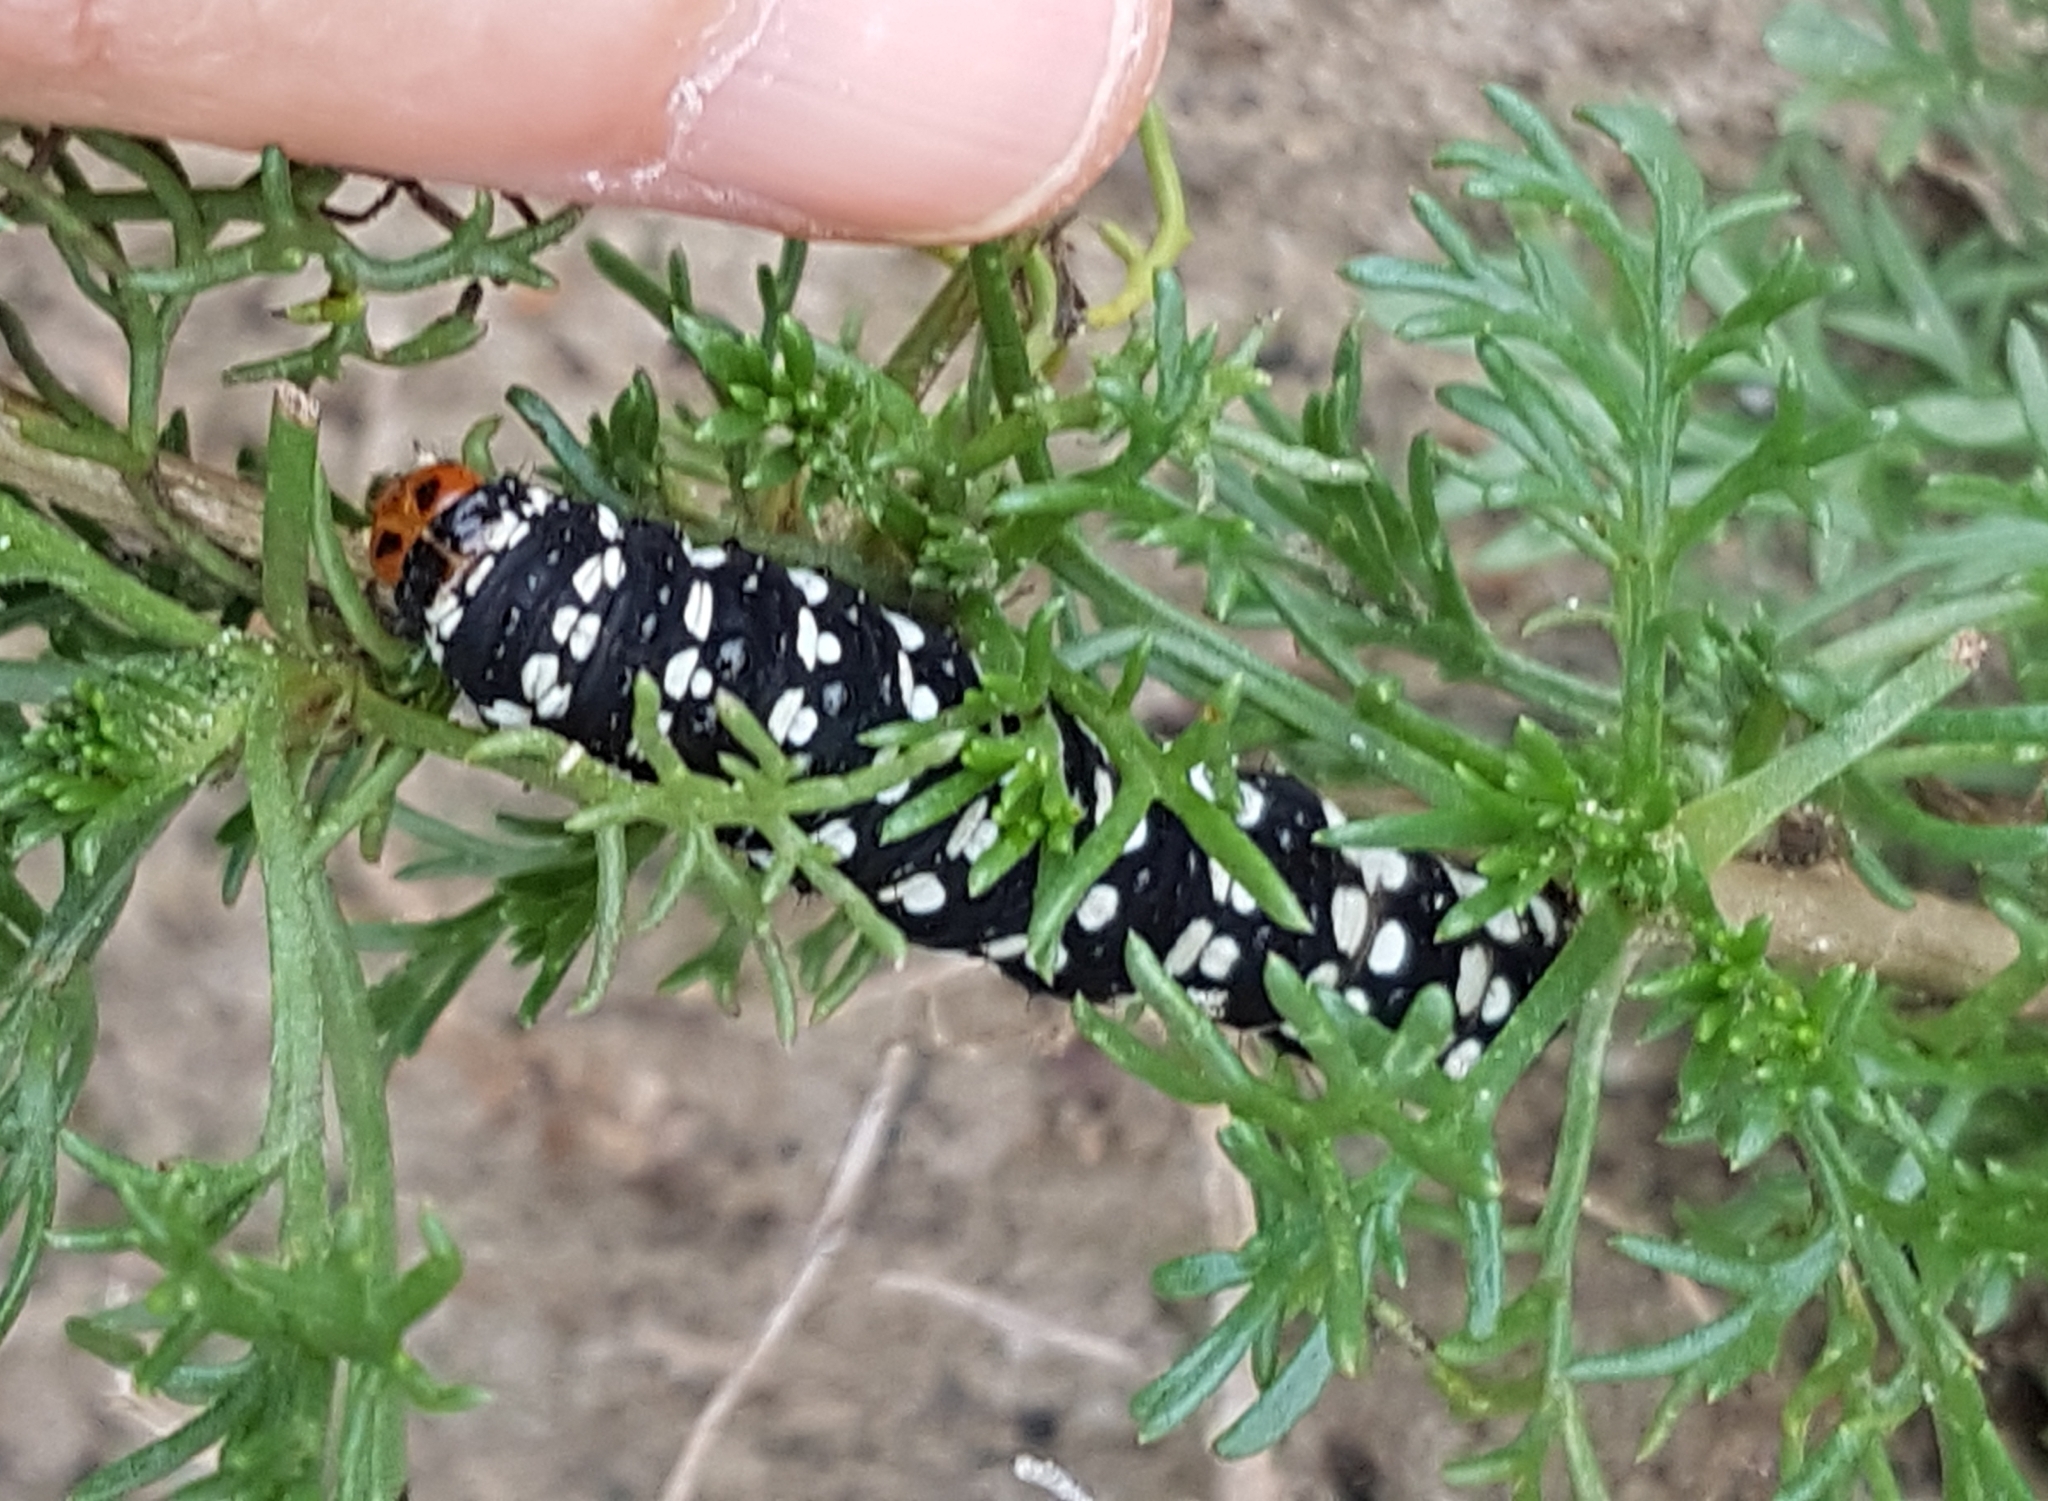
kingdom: Animalia
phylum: Arthropoda
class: Insecta
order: Lepidoptera
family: Noctuidae
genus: Brithys
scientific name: Brithys crini
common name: Kew arches
